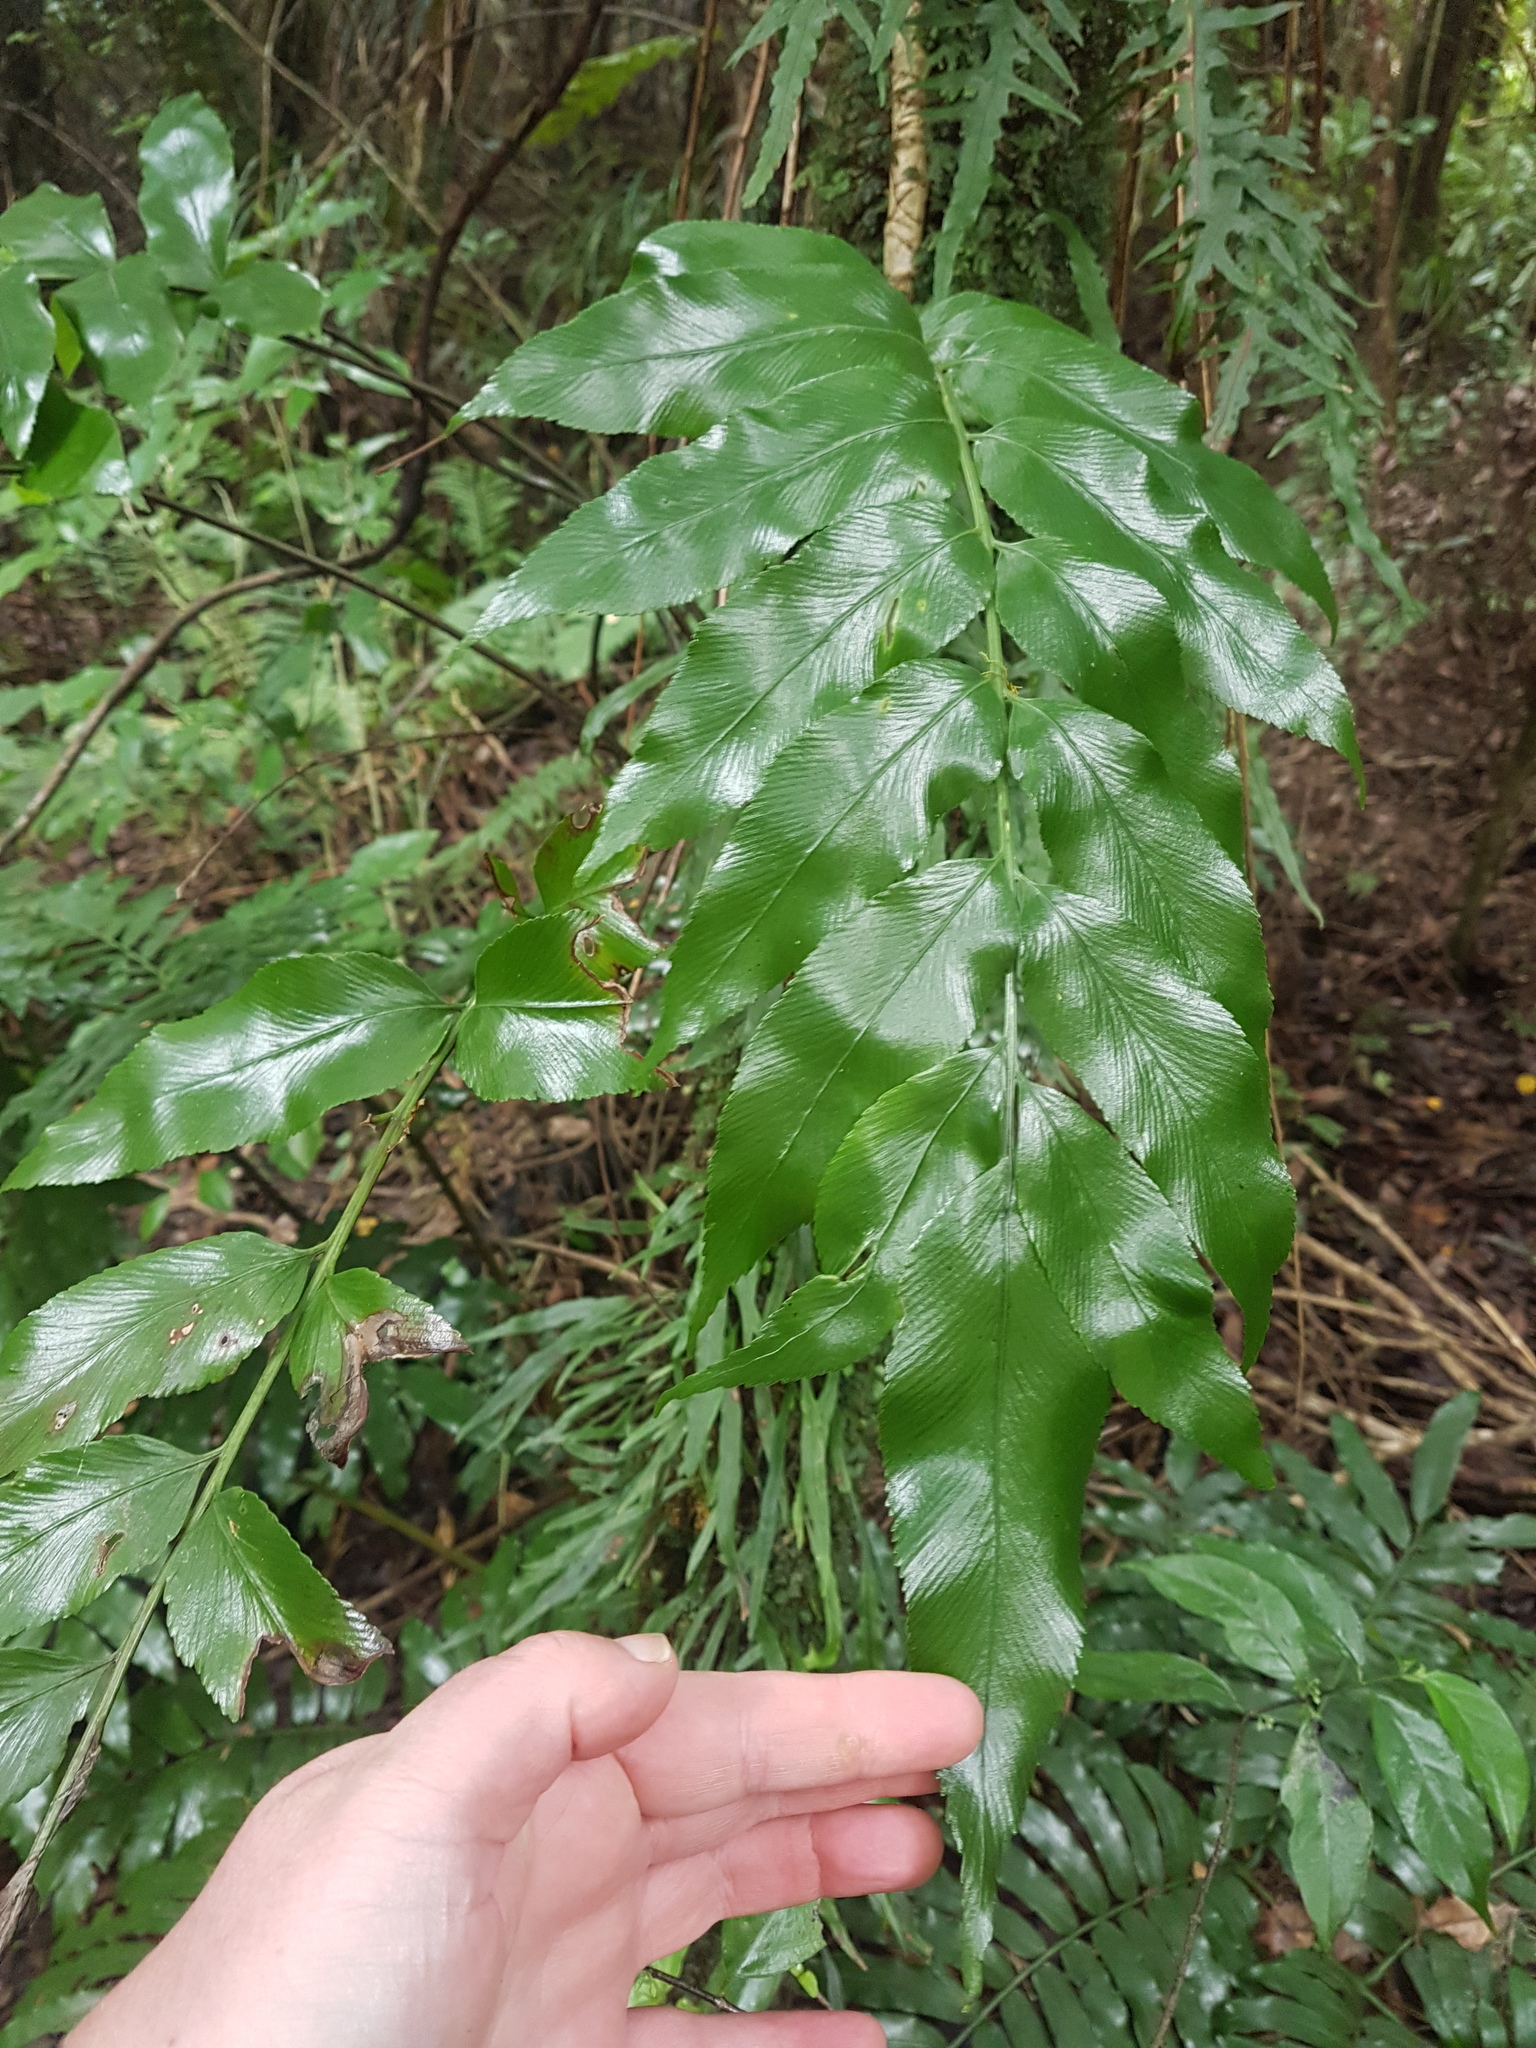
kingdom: Plantae
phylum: Tracheophyta
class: Polypodiopsida
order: Polypodiales
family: Aspleniaceae
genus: Asplenium
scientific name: Asplenium oblongifolium
